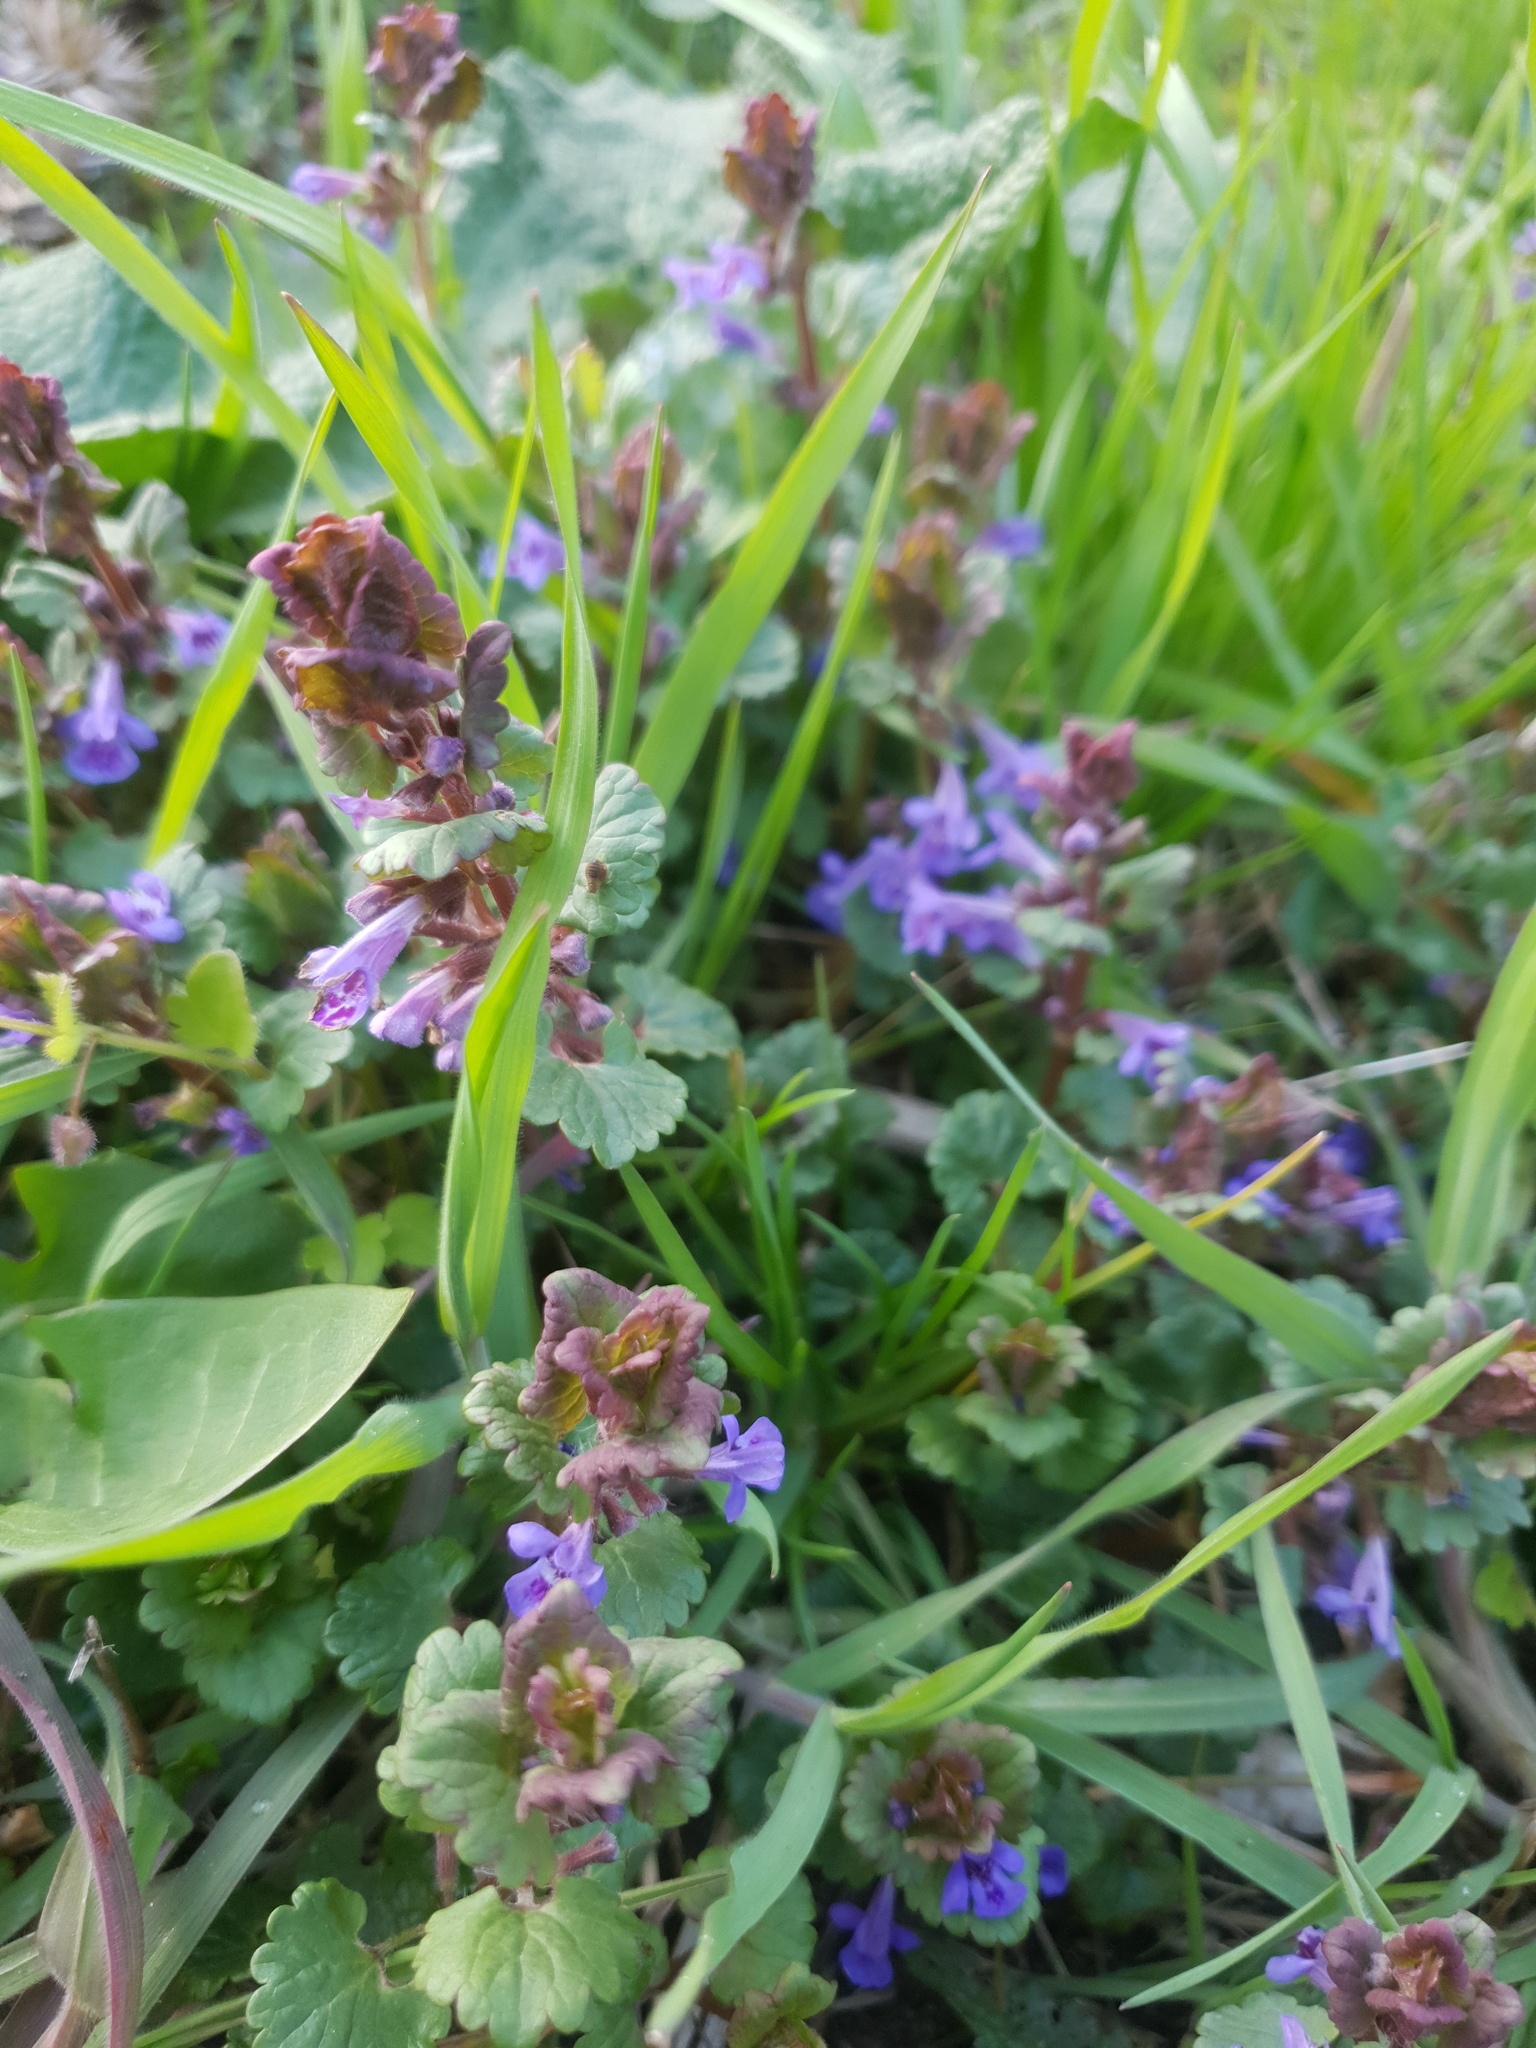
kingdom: Plantae
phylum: Tracheophyta
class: Magnoliopsida
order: Lamiales
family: Lamiaceae
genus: Glechoma
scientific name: Glechoma hederacea
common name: Ground ivy
